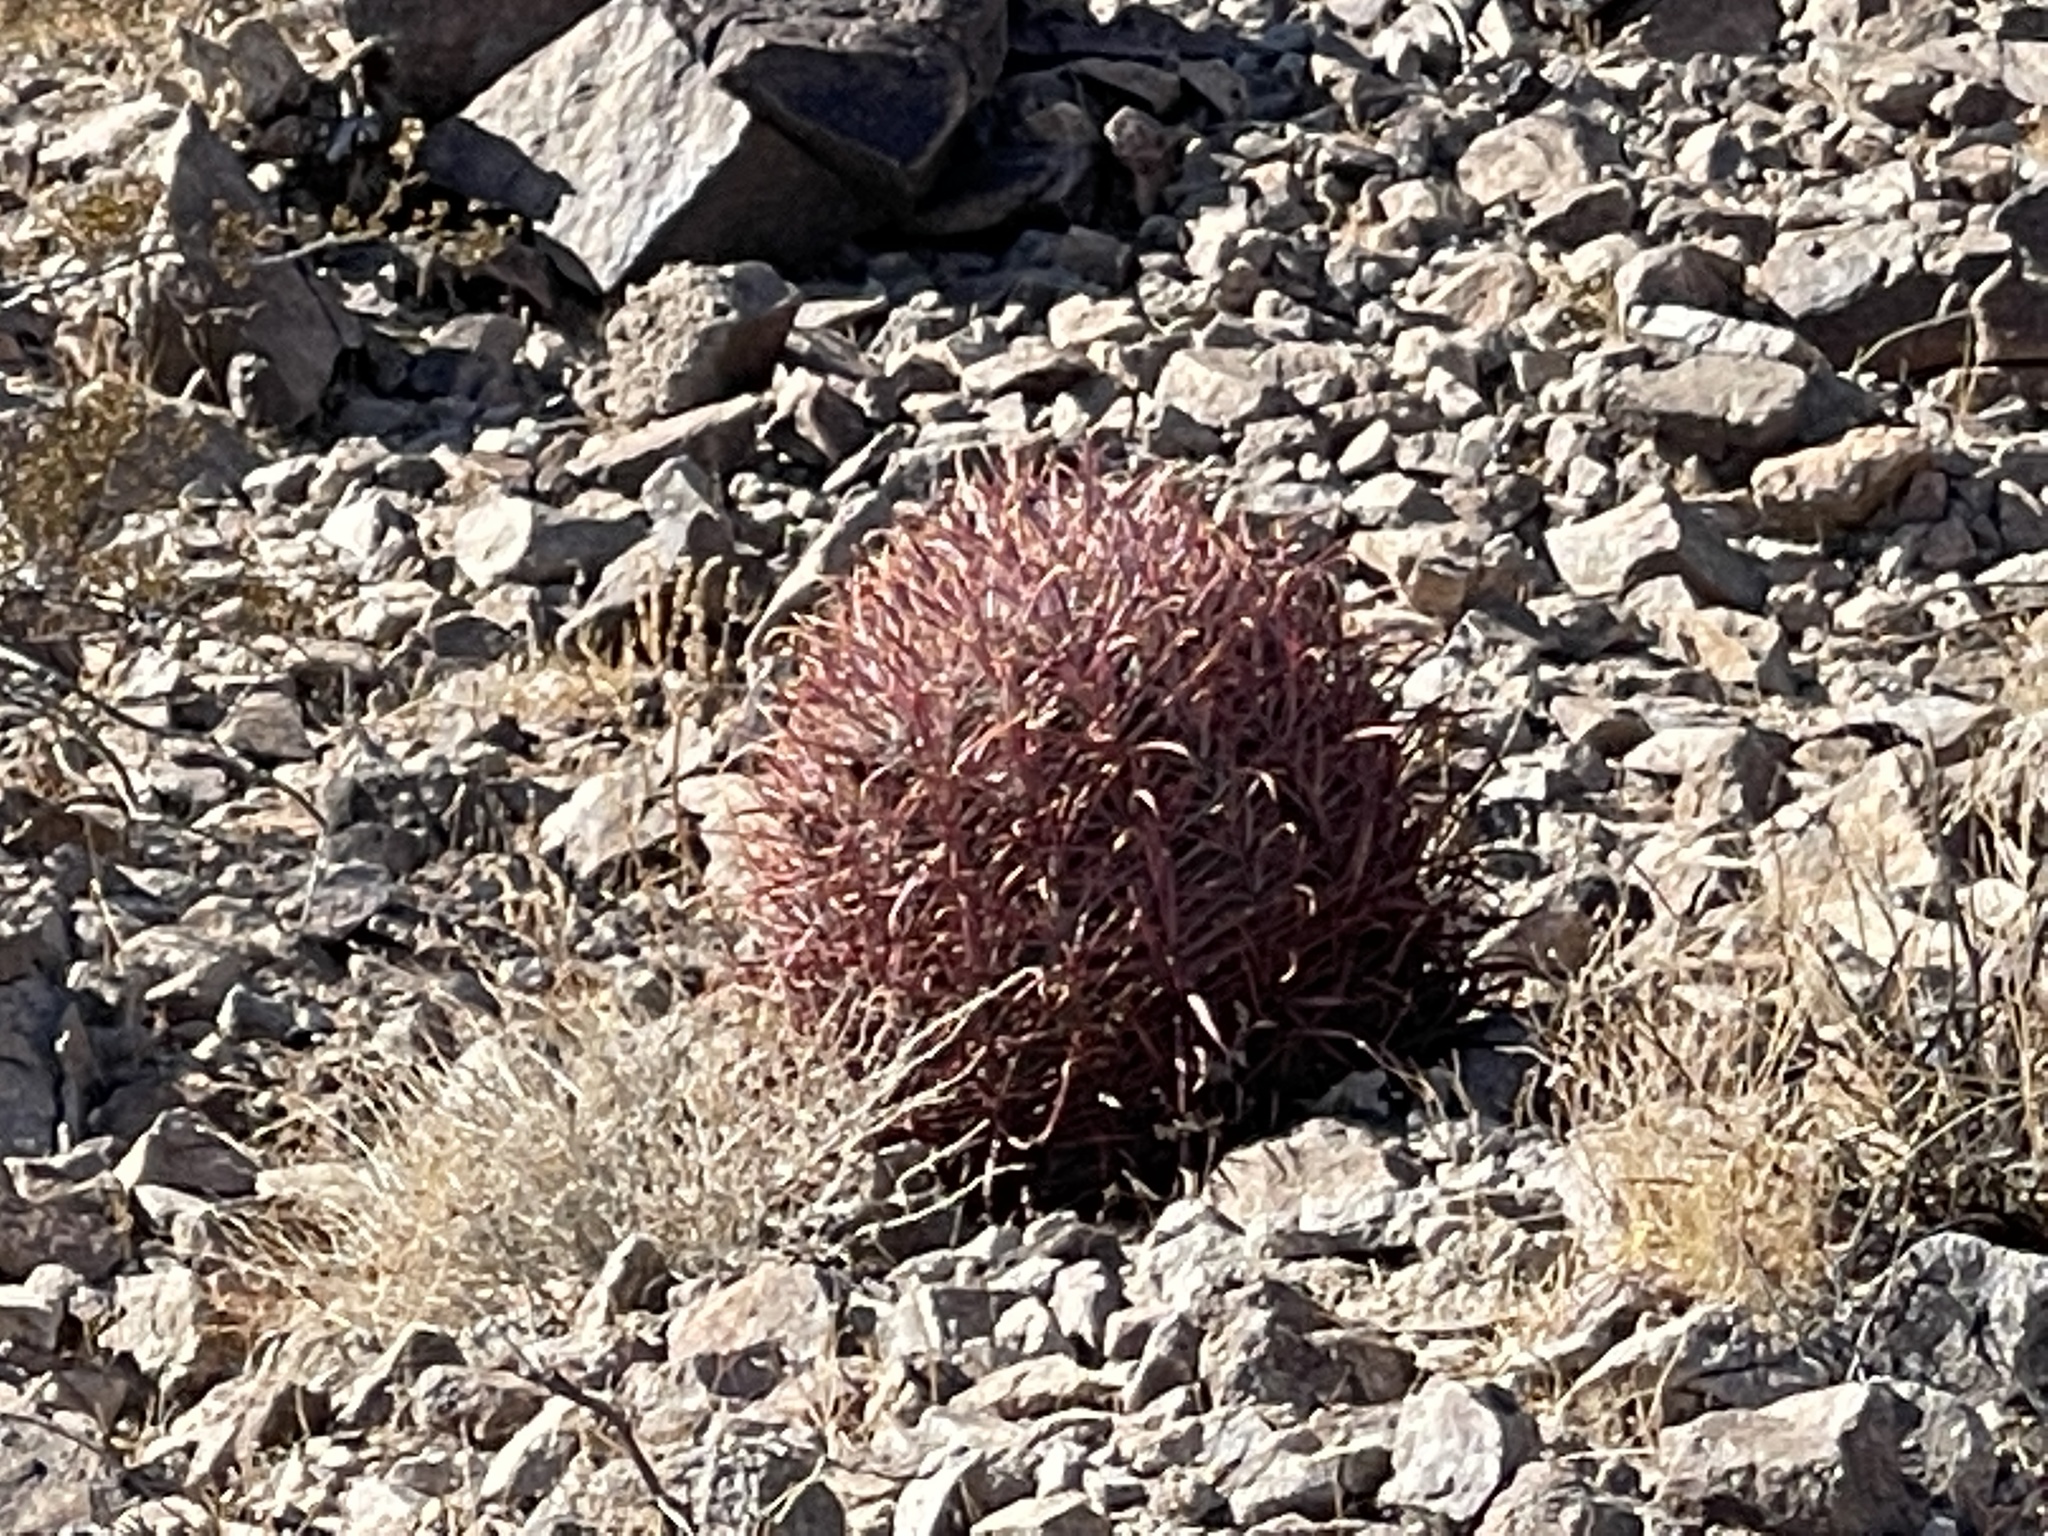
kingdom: Plantae
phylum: Tracheophyta
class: Magnoliopsida
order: Caryophyllales
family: Cactaceae
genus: Ferocactus
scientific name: Ferocactus cylindraceus
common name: California barrel cactus
